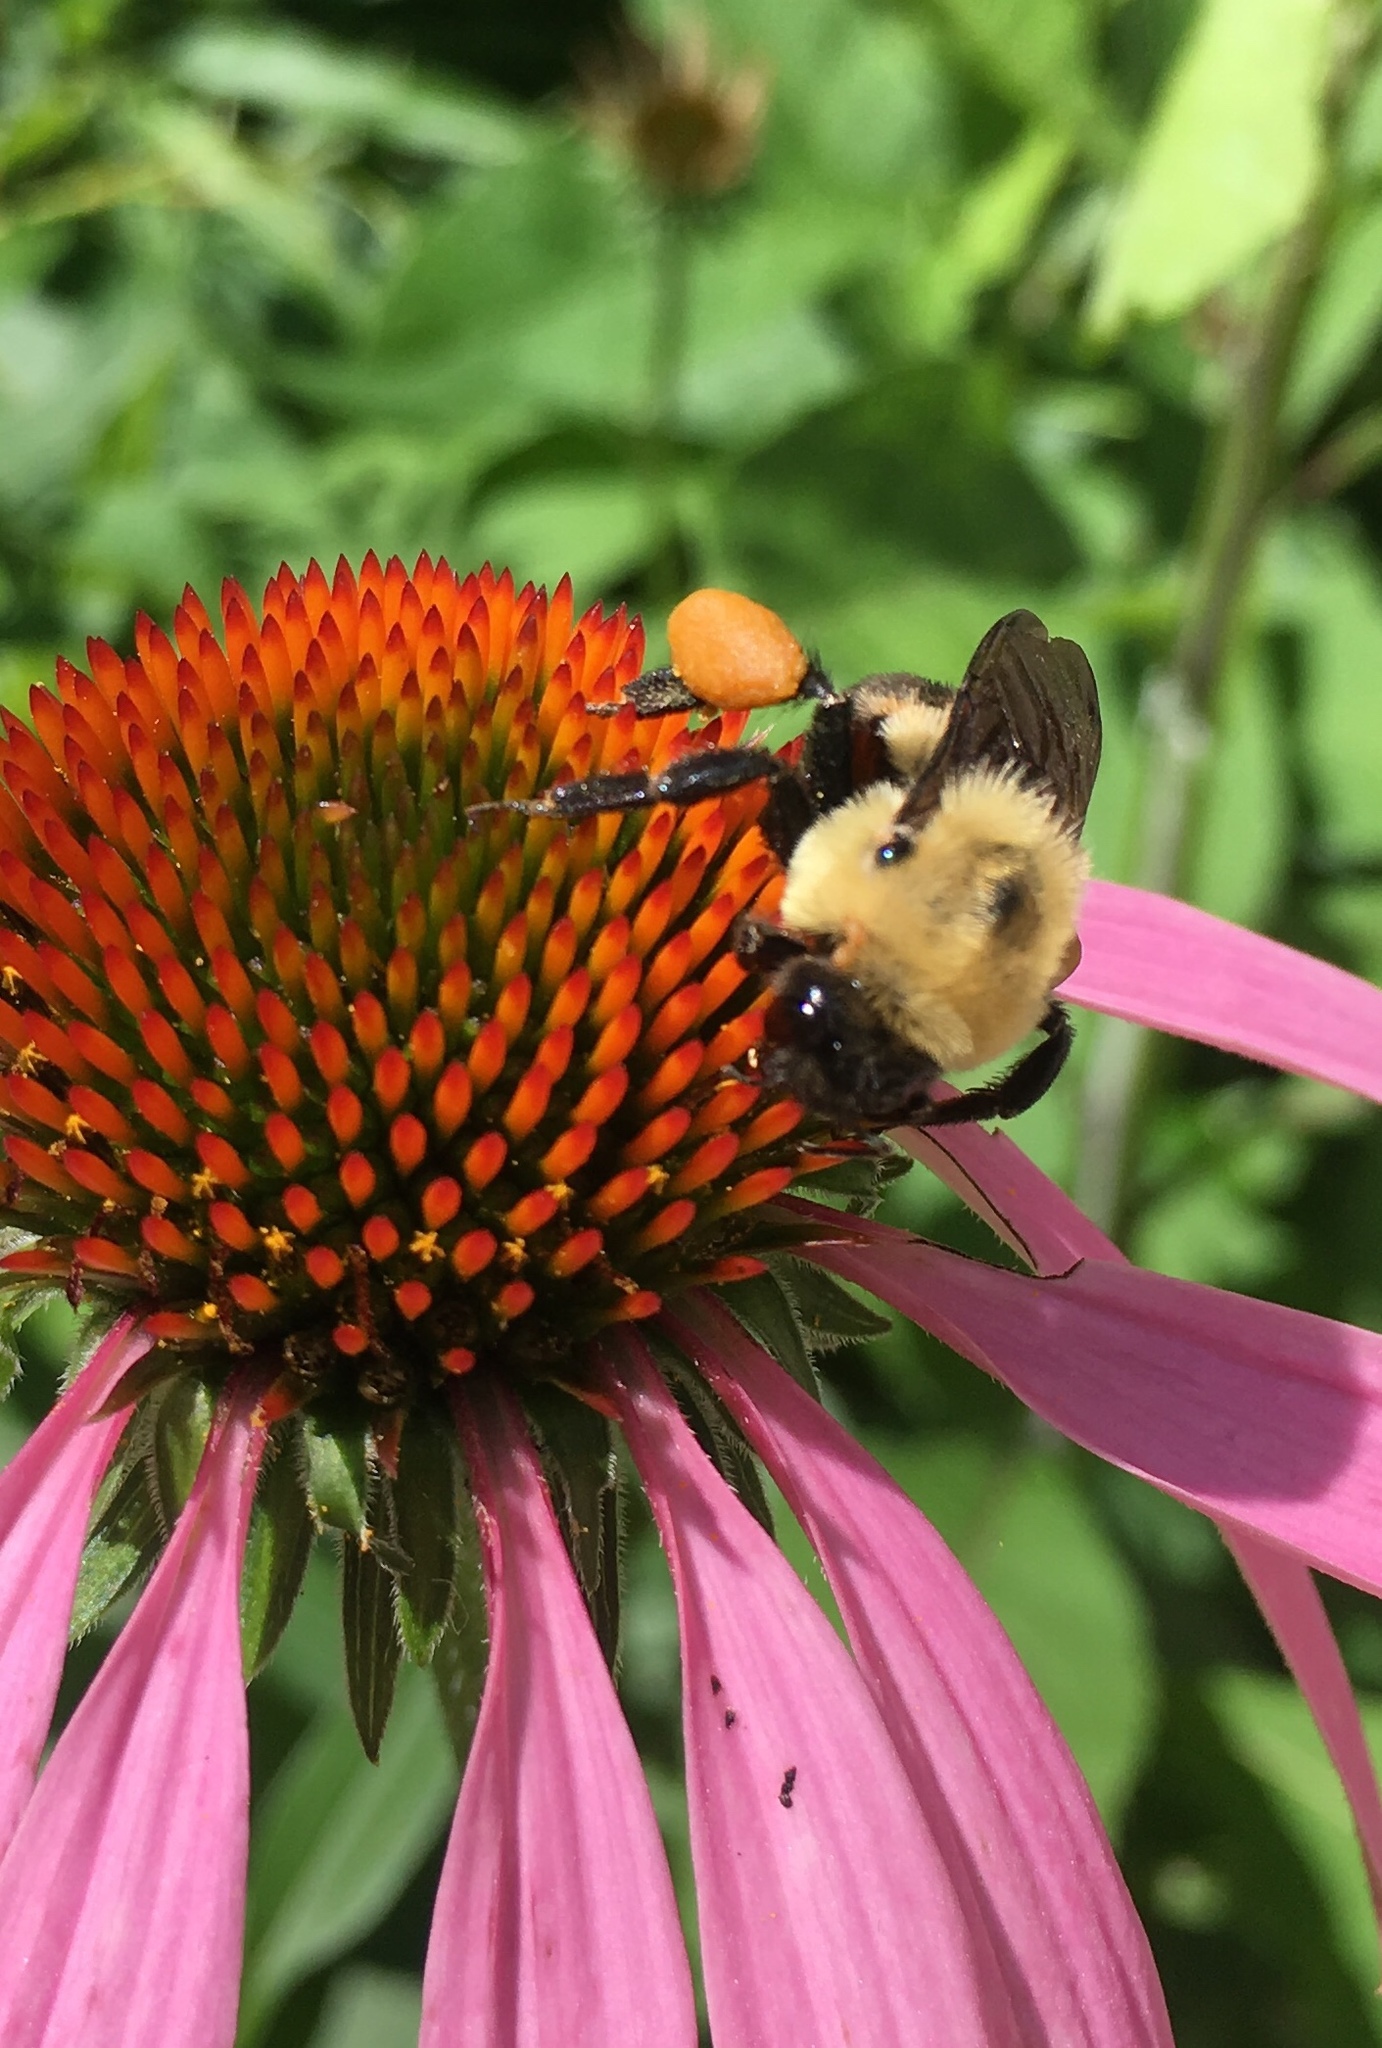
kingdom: Animalia
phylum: Arthropoda
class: Insecta
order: Hymenoptera
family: Apidae
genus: Bombus
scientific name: Bombus griseocollis
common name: Brown-belted bumble bee
